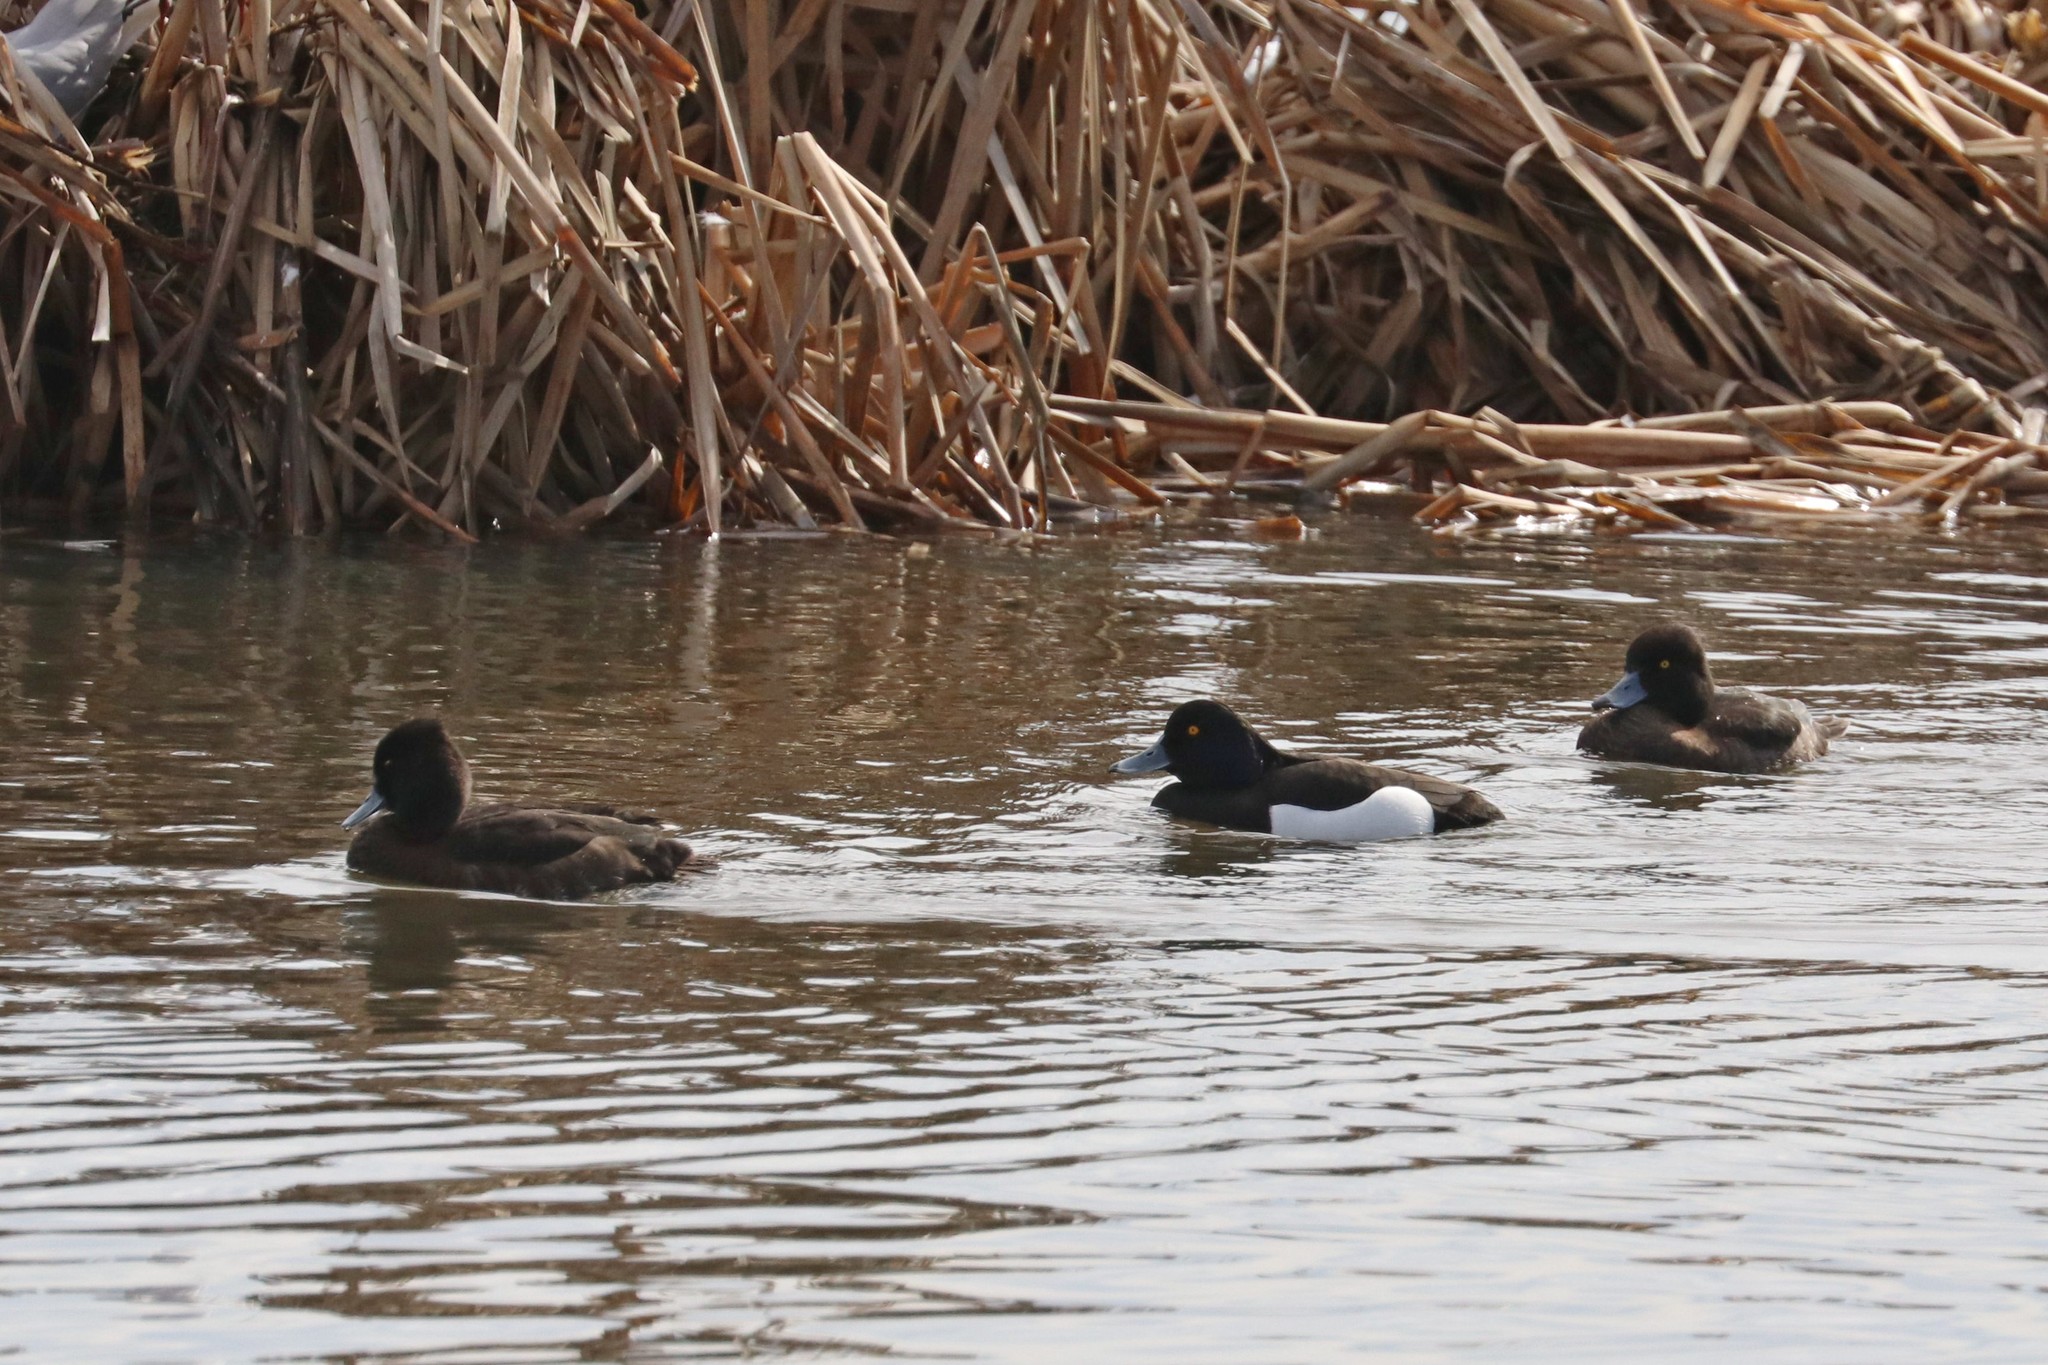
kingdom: Animalia
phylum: Chordata
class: Aves
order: Anseriformes
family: Anatidae
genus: Aythya
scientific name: Aythya fuligula
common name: Tufted duck
